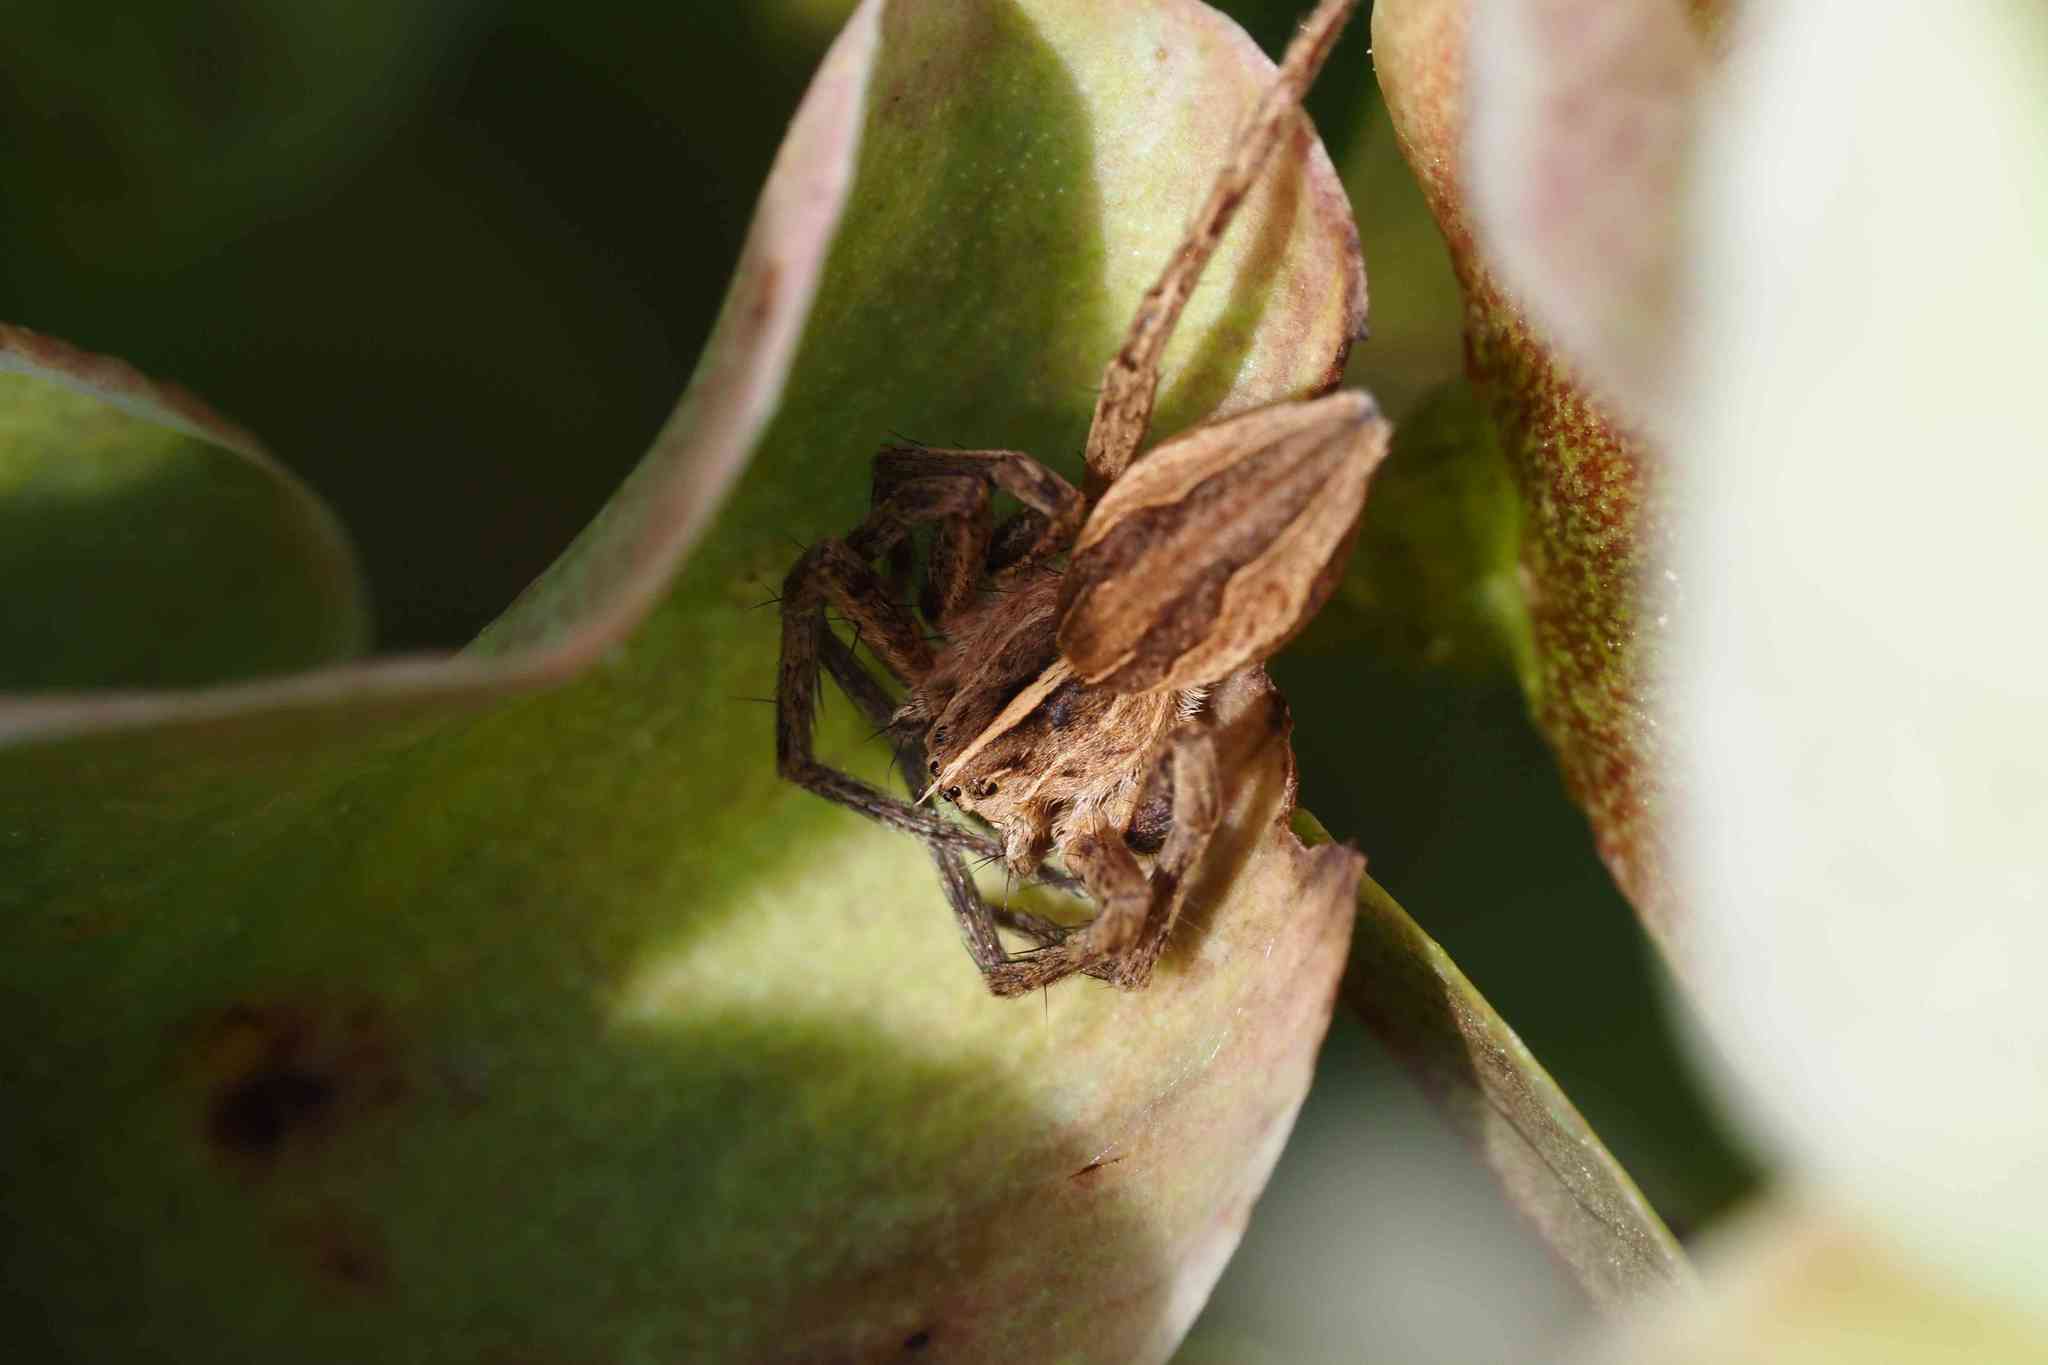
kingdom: Animalia
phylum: Arthropoda
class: Arachnida
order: Araneae
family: Pisauridae
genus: Pisaura
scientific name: Pisaura mirabilis
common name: Tent spider
